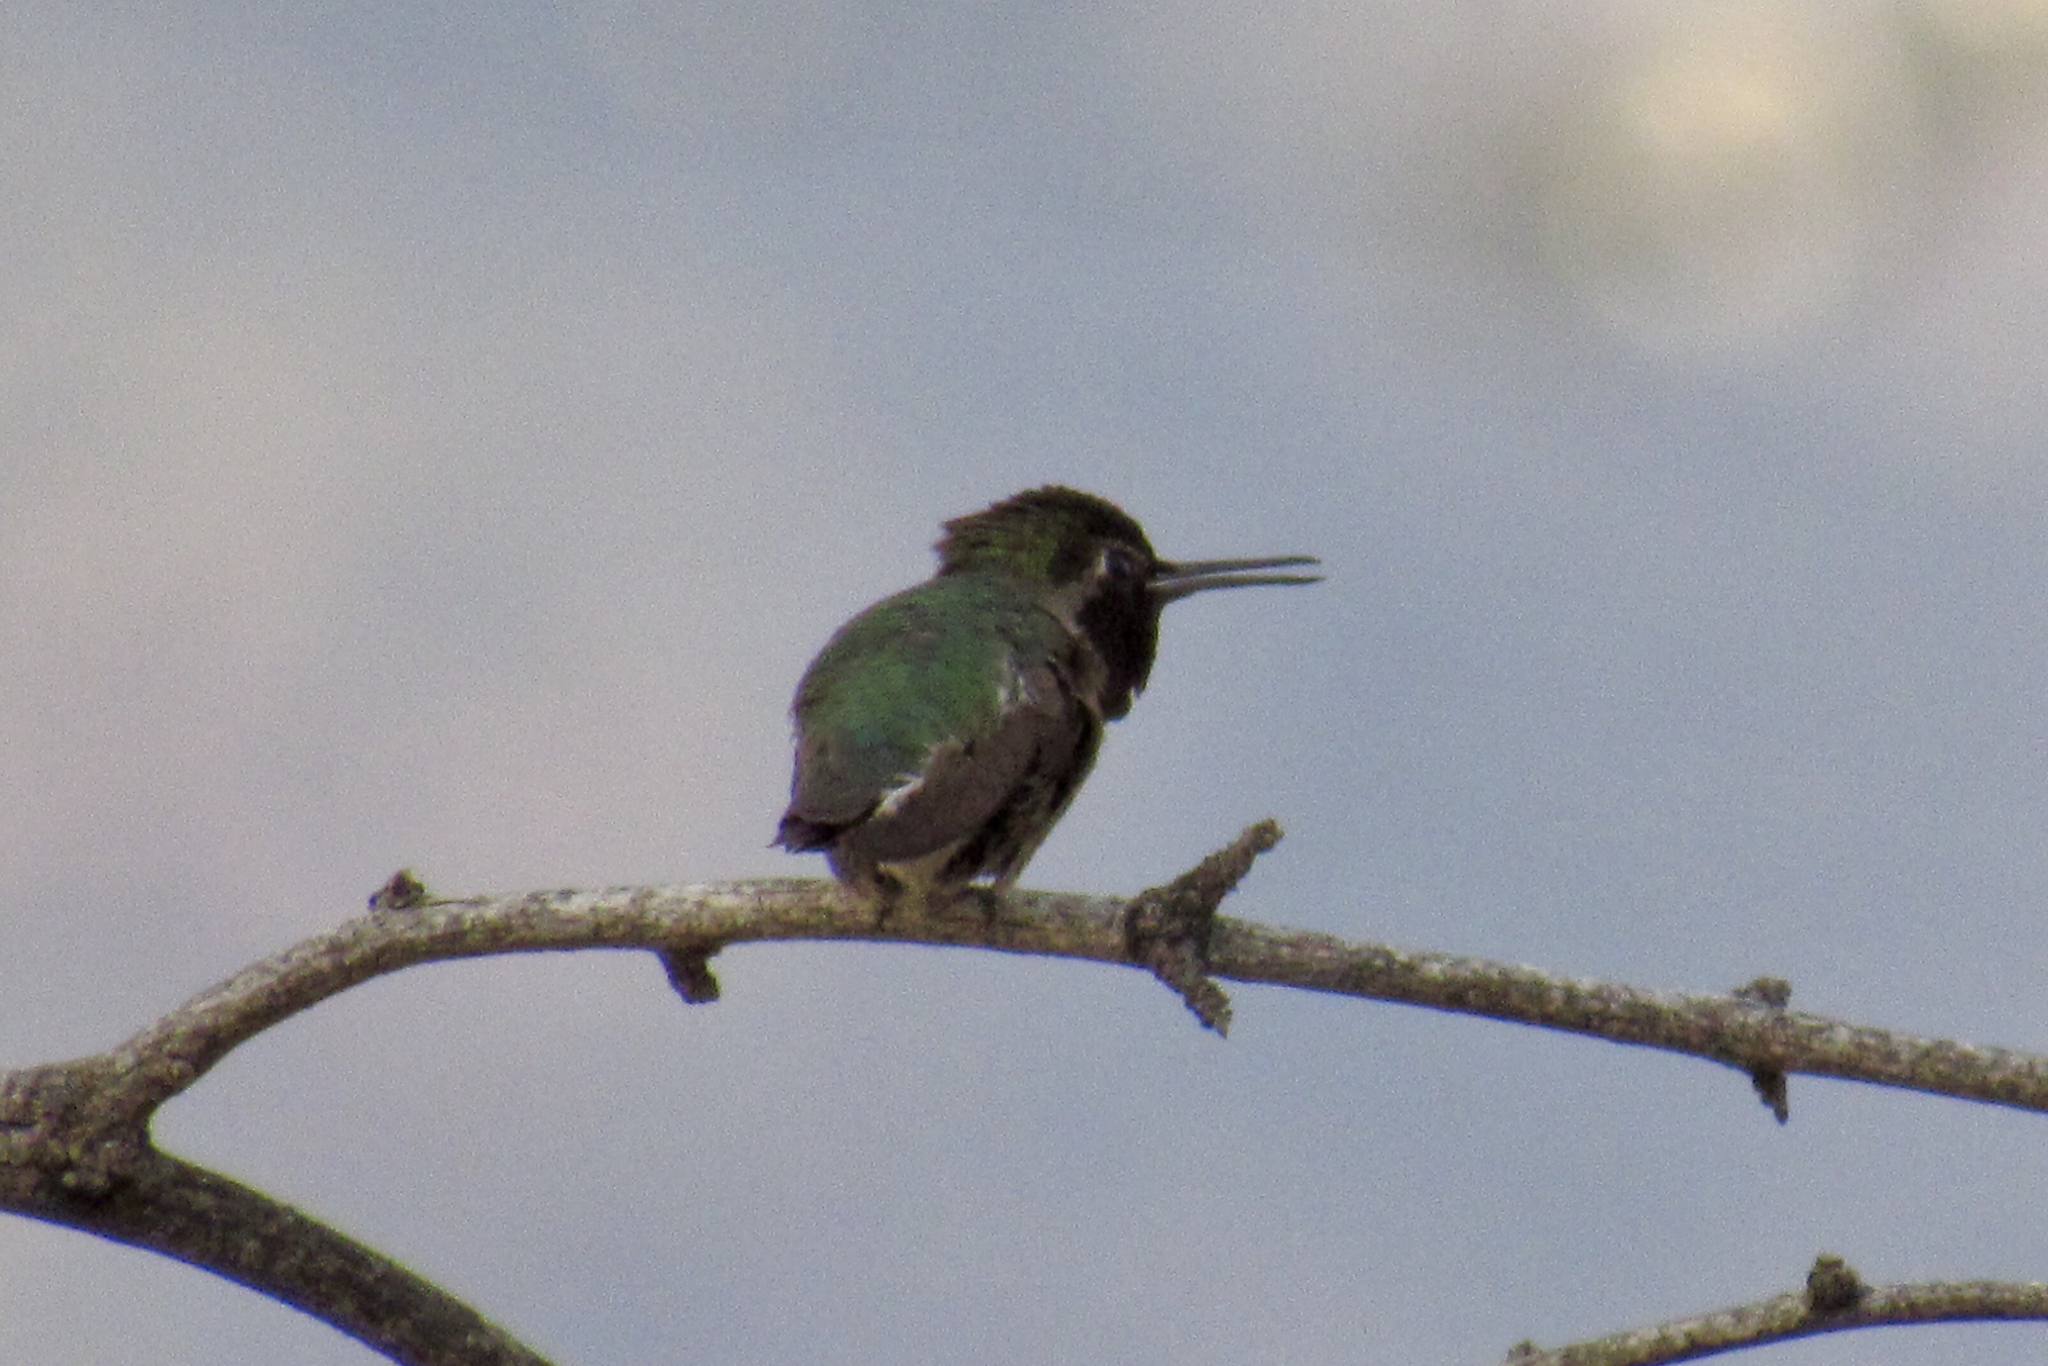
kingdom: Animalia
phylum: Chordata
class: Aves
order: Apodiformes
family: Trochilidae
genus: Calypte
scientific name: Calypte anna
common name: Anna's hummingbird
